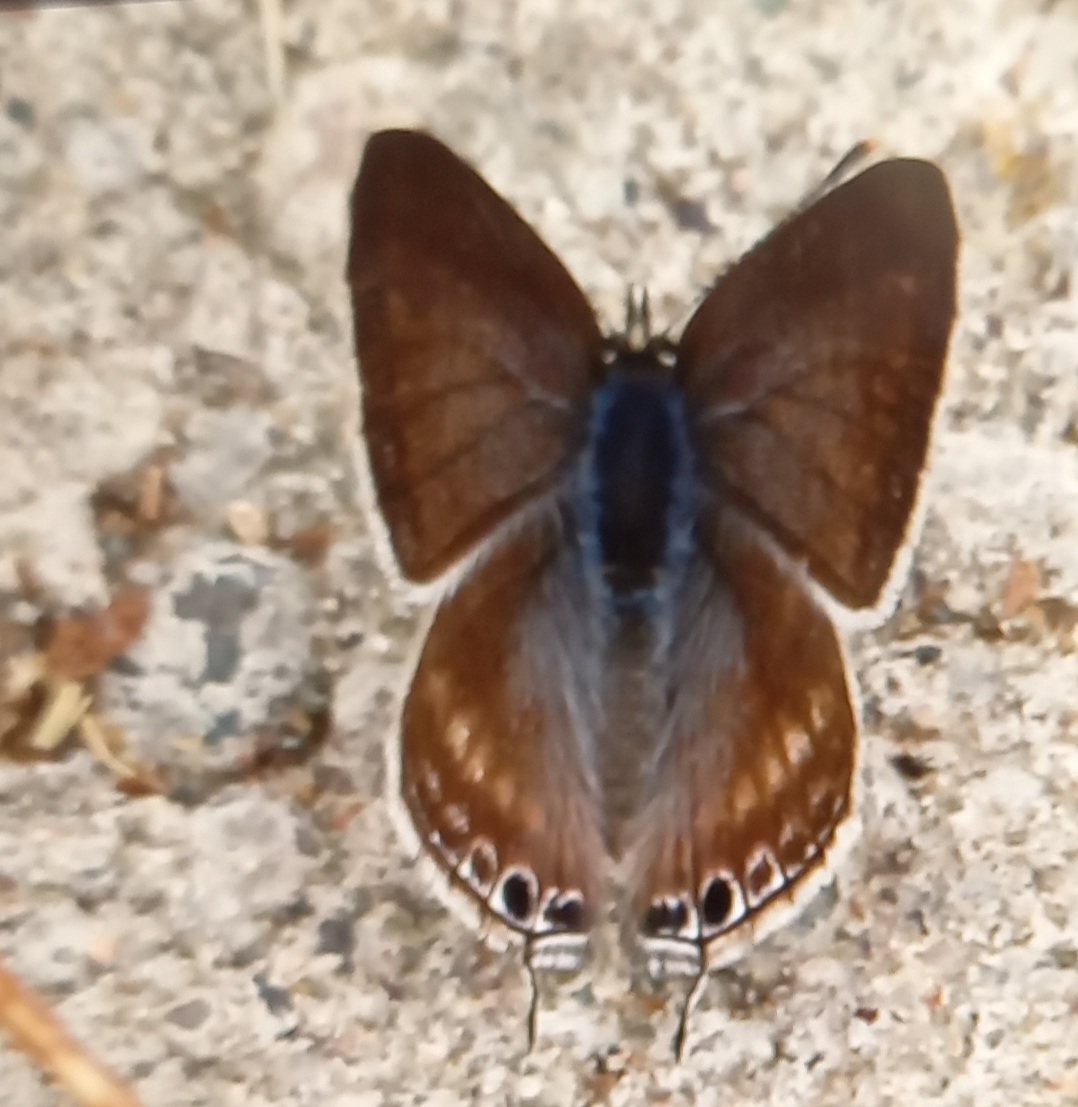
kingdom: Animalia
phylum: Arthropoda
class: Insecta
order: Lepidoptera
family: Lycaenidae
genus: Lampides
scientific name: Lampides boeticus
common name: Long-tailed blue
